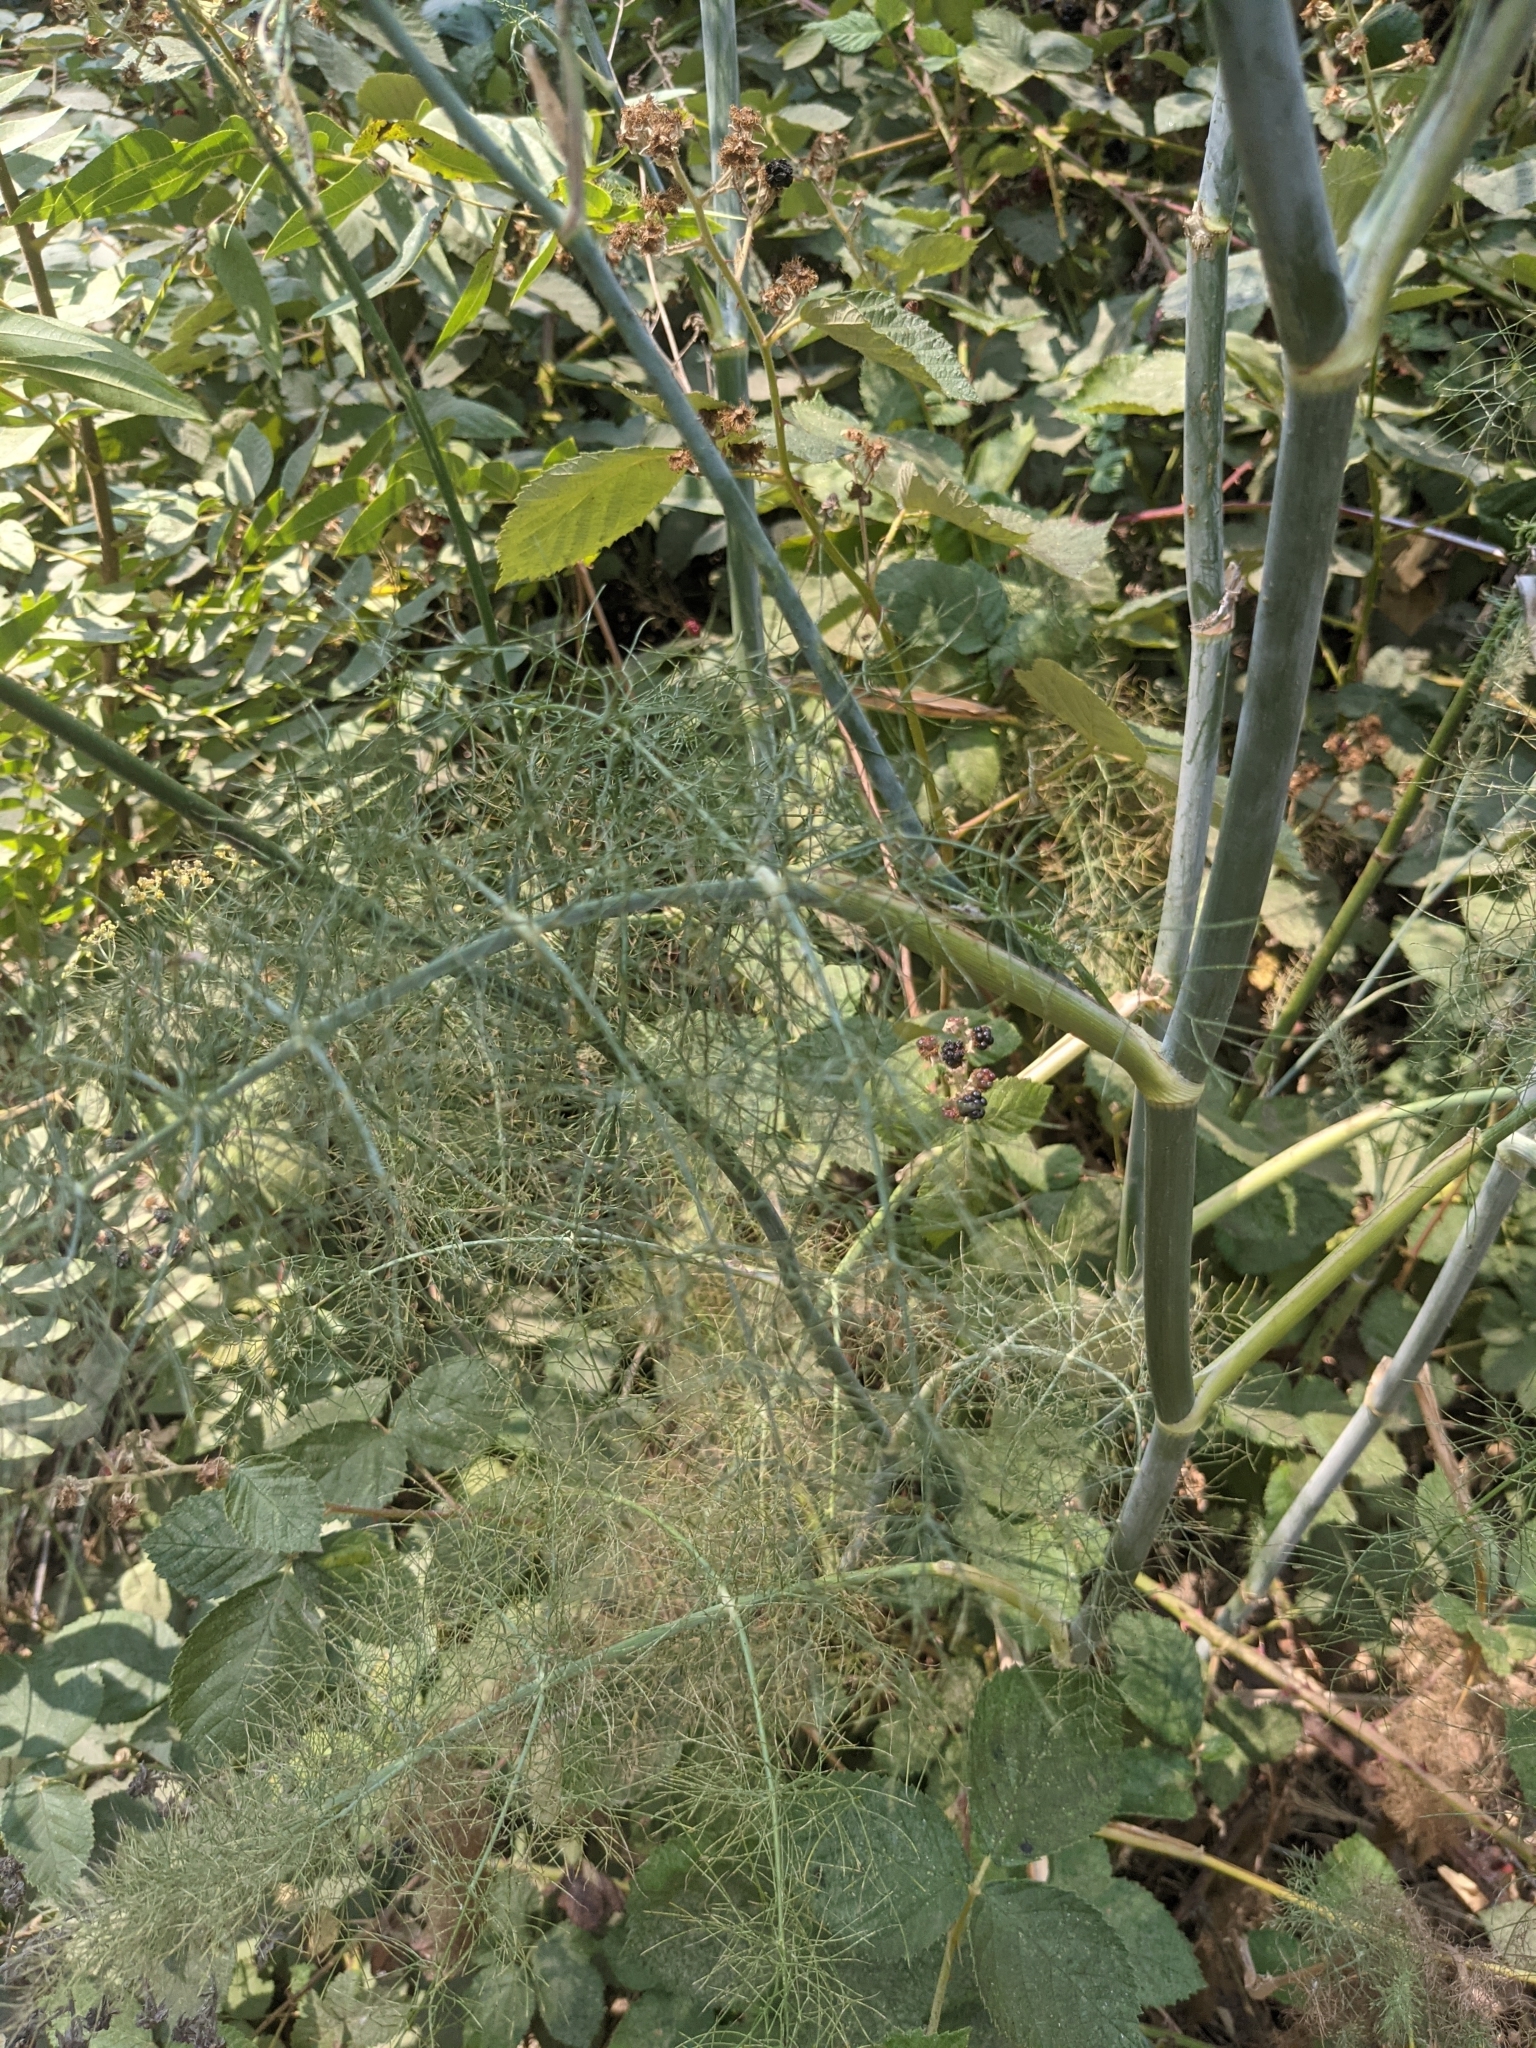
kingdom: Plantae
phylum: Tracheophyta
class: Magnoliopsida
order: Apiales
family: Apiaceae
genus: Foeniculum
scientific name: Foeniculum vulgare
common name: Fennel
